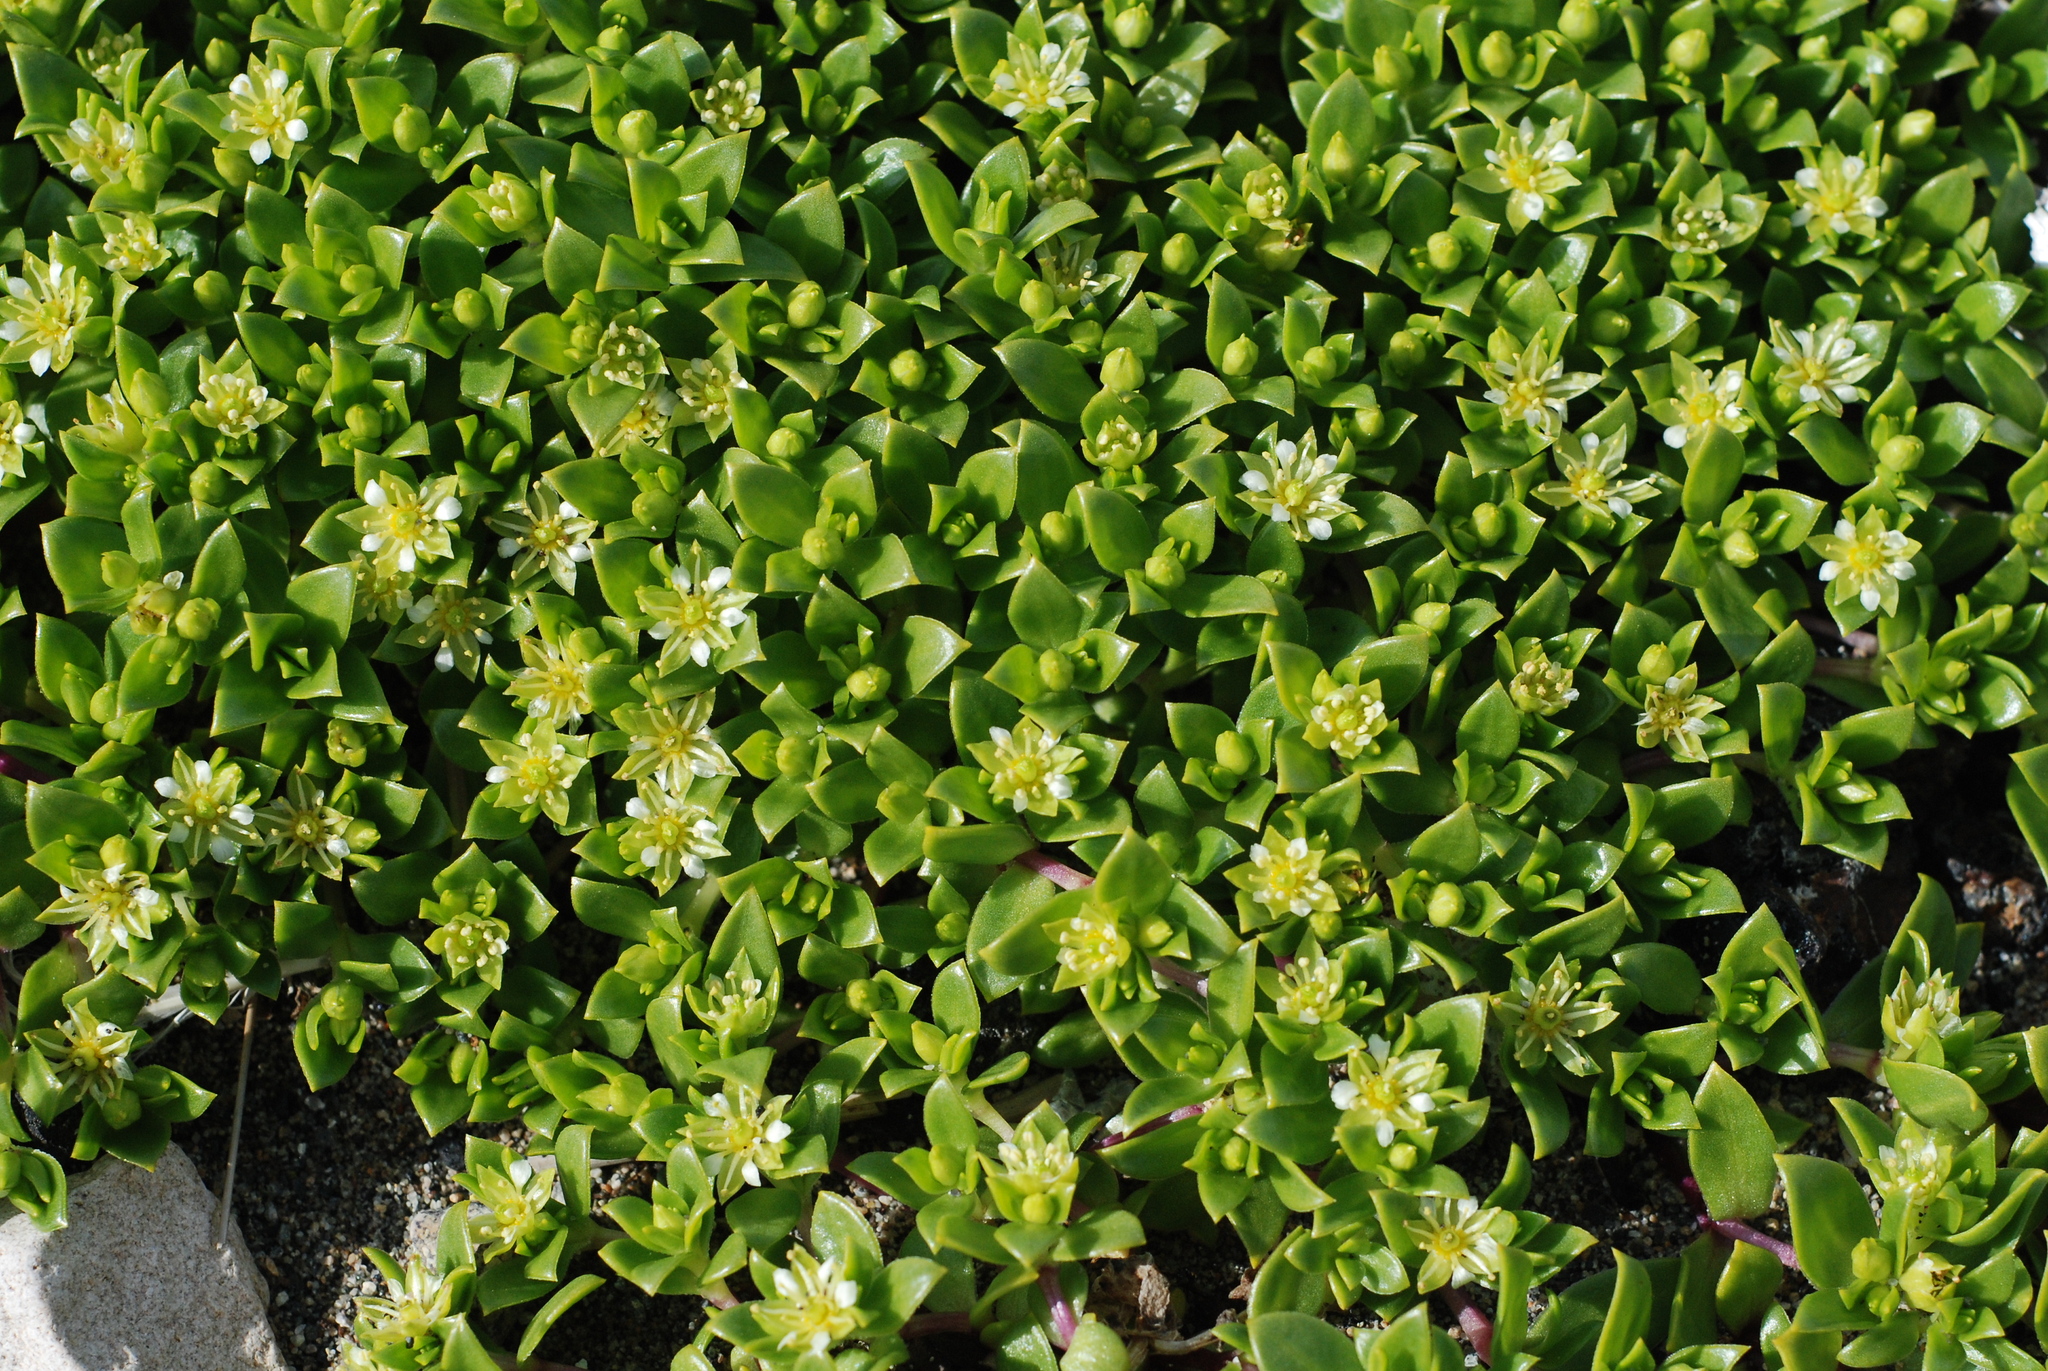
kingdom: Plantae
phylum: Tracheophyta
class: Magnoliopsida
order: Caryophyllales
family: Caryophyllaceae
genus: Honckenya
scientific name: Honckenya peploides
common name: Sea sandwort
